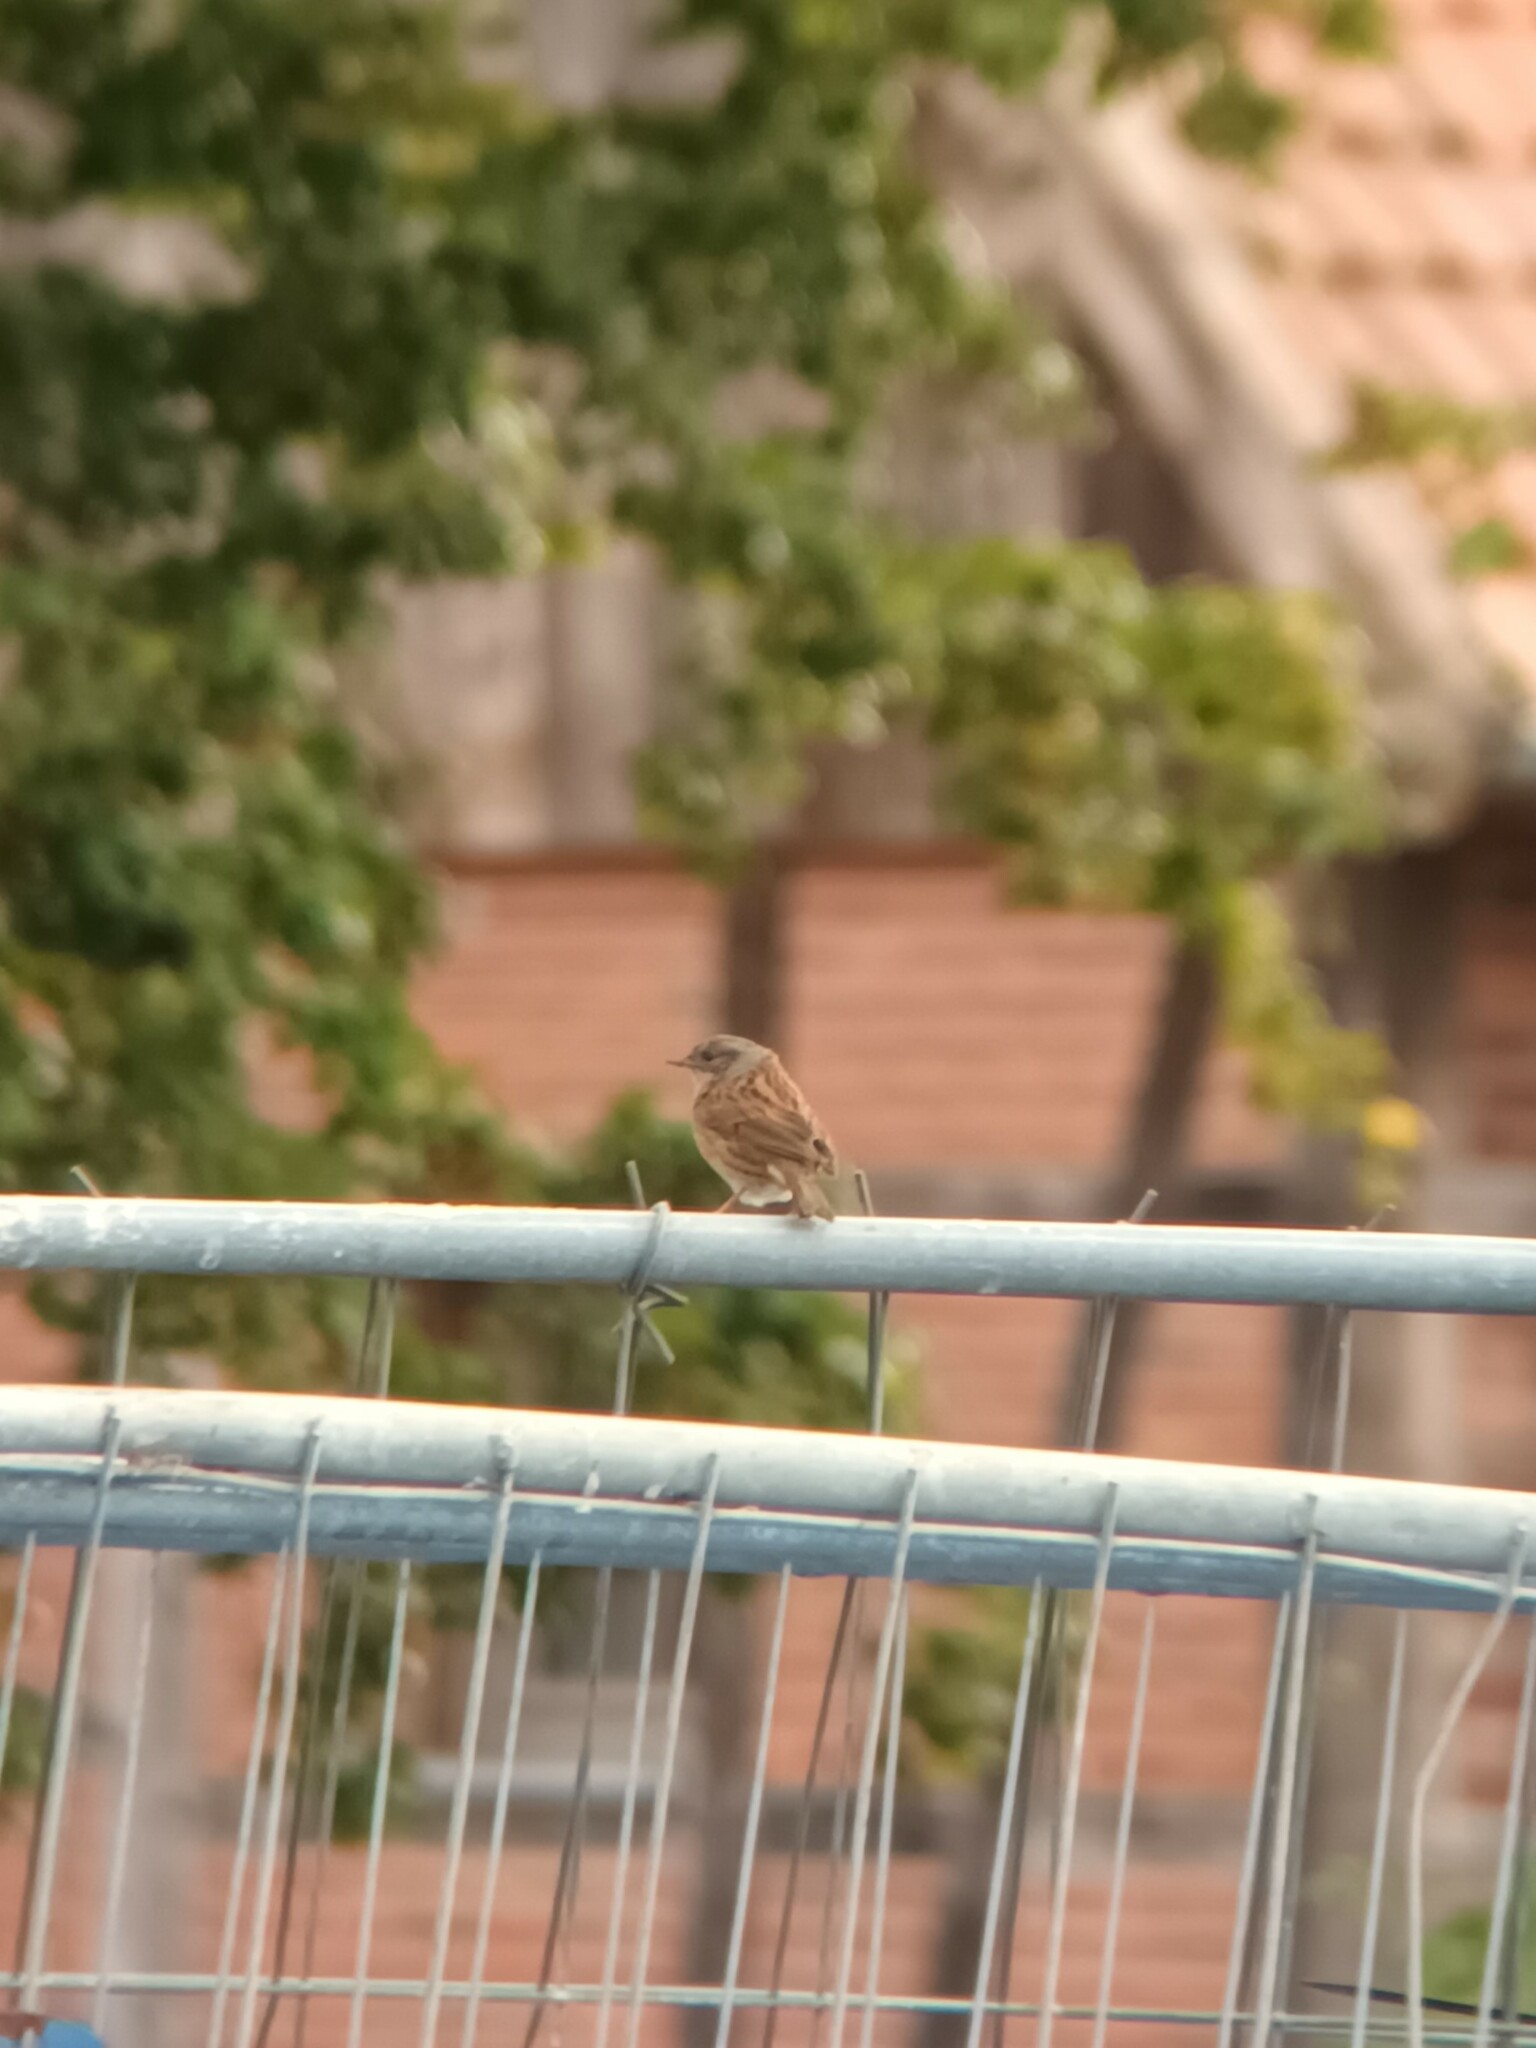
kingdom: Animalia
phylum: Chordata
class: Aves
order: Passeriformes
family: Prunellidae
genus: Prunella
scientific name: Prunella modularis
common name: Dunnock
